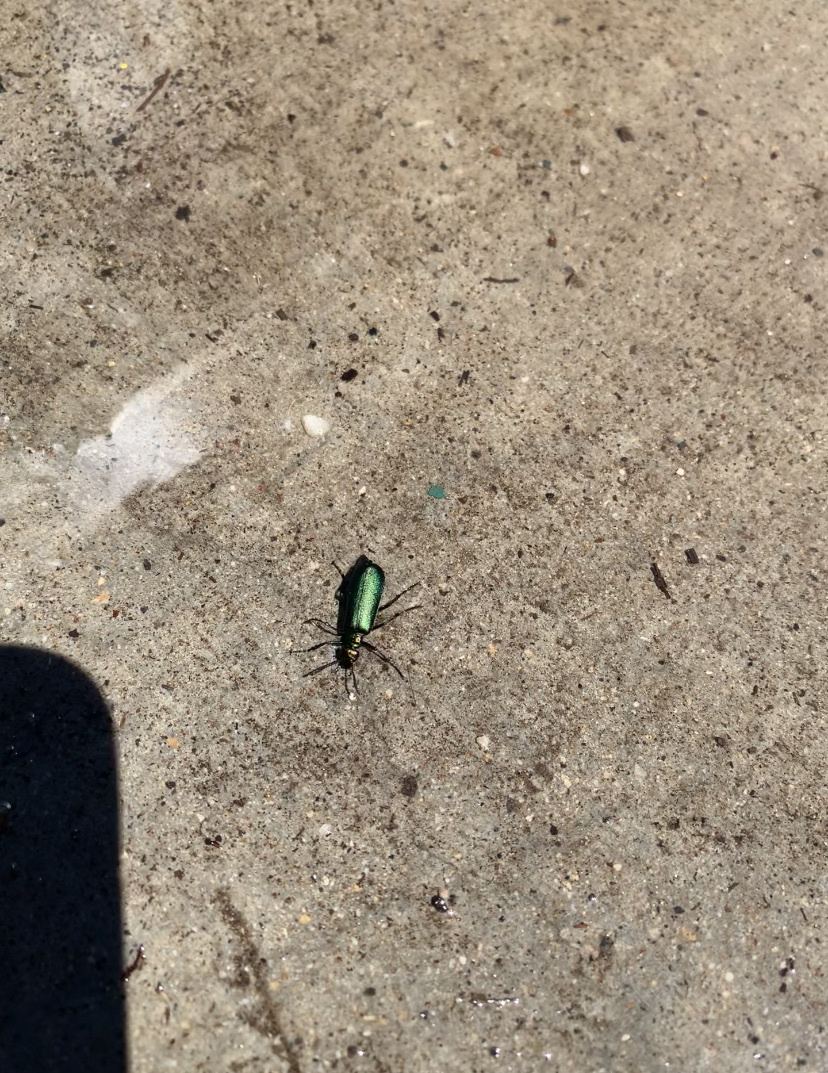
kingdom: Animalia
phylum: Arthropoda
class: Insecta
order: Coleoptera
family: Meloidae
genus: Lytta
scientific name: Lytta cyanipennis
